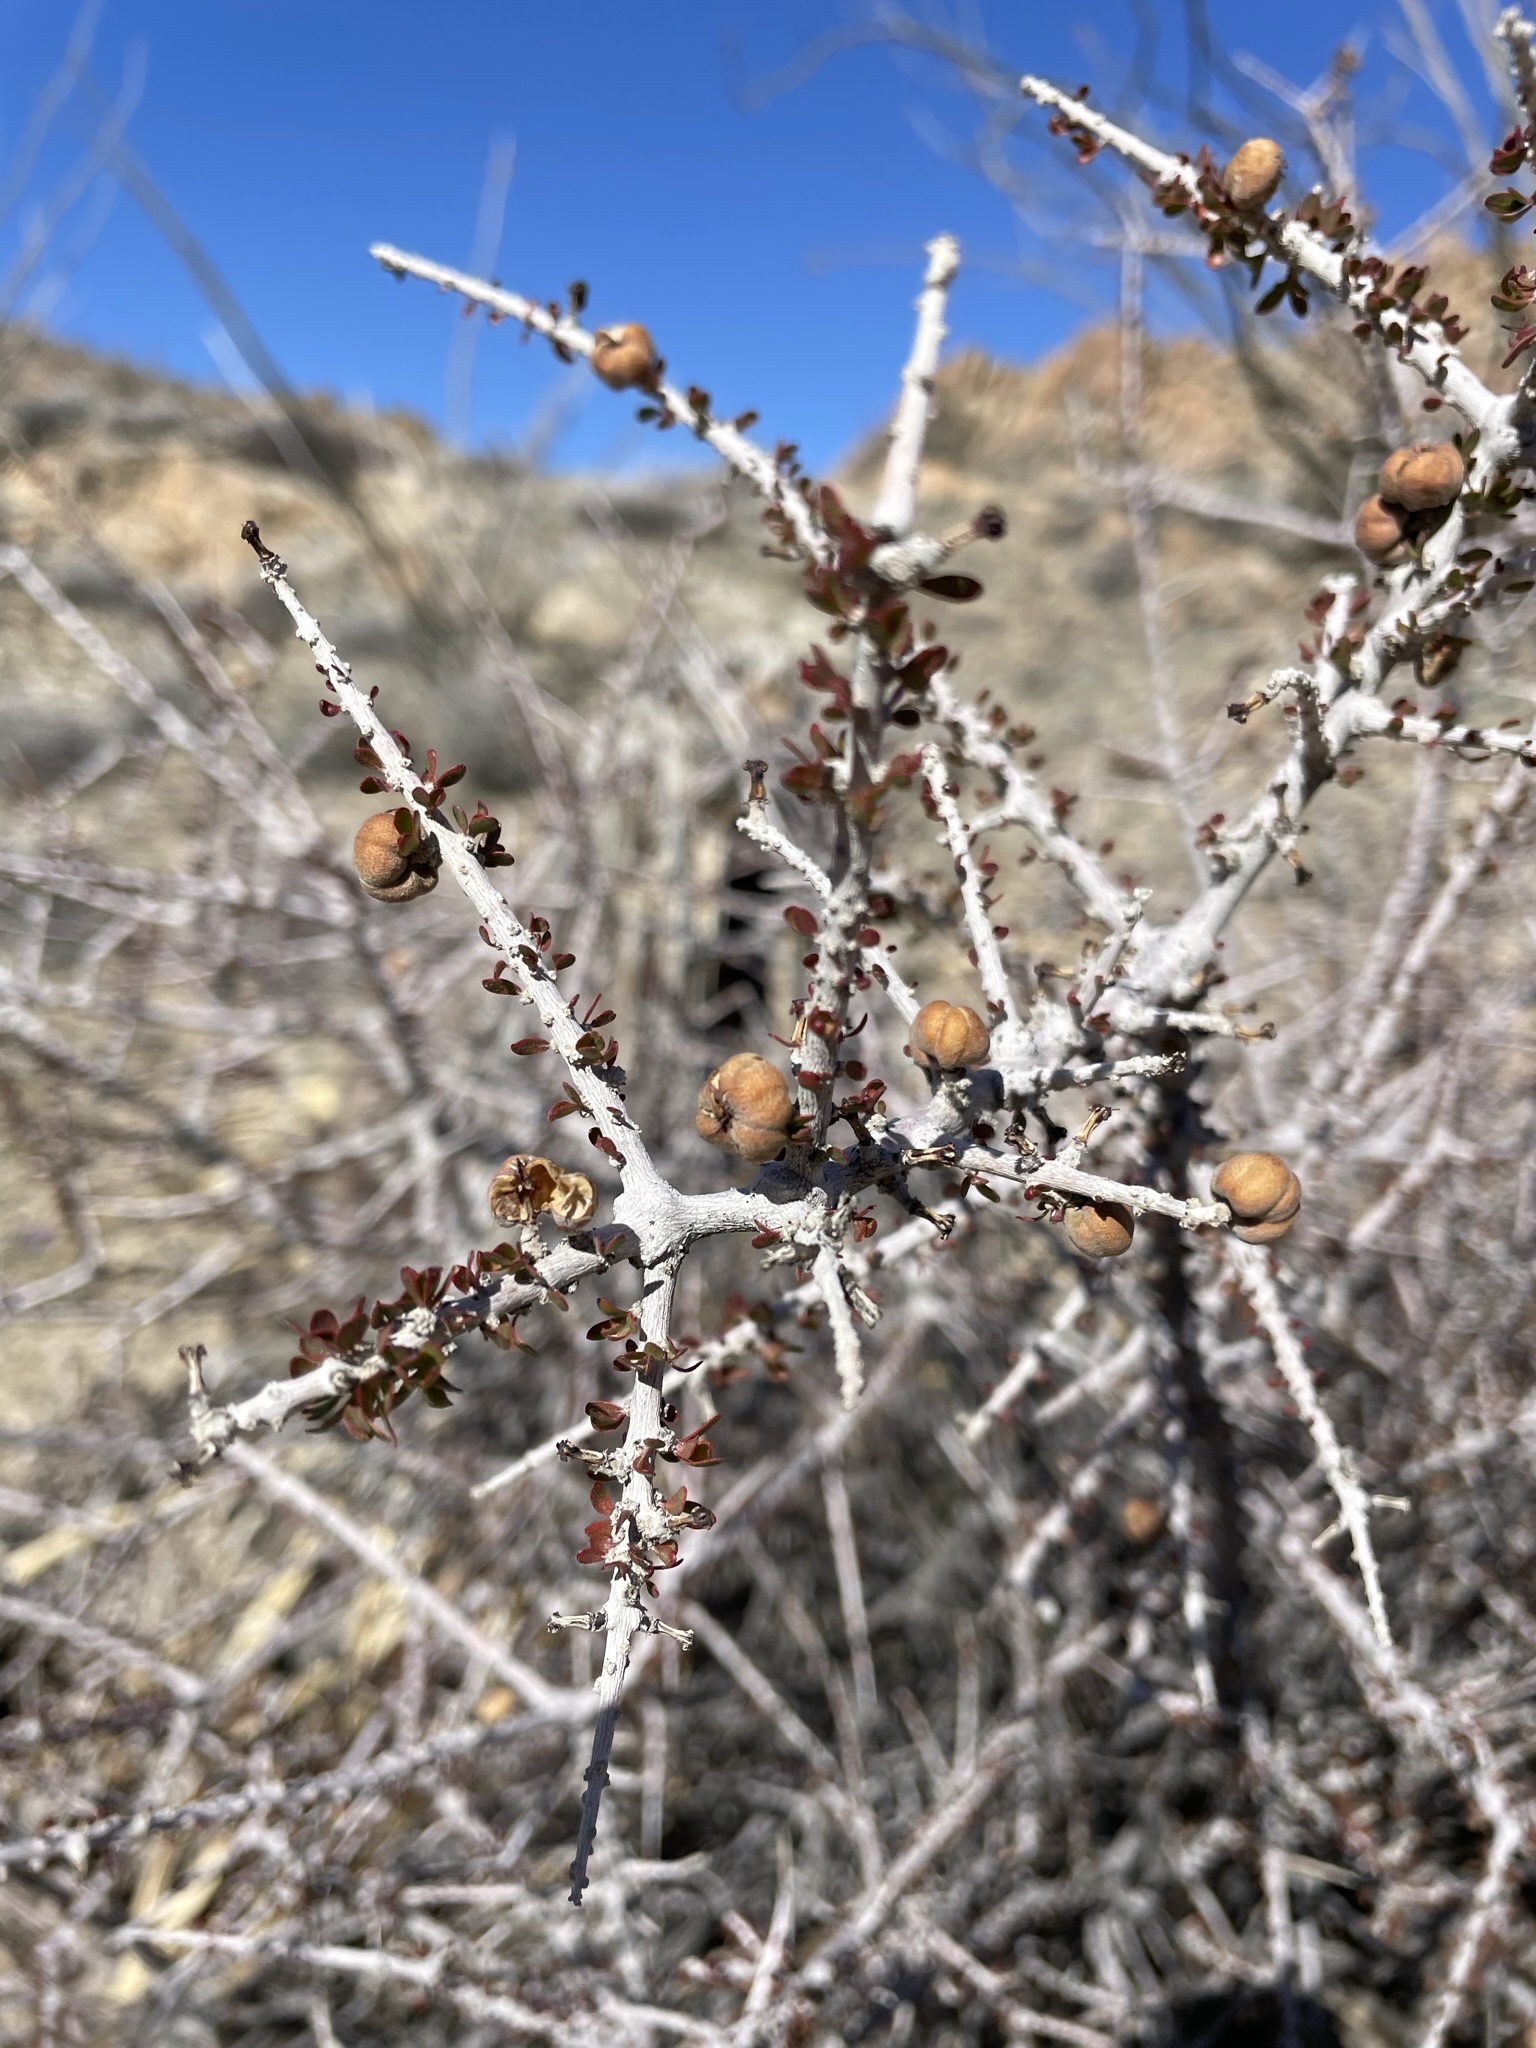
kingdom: Plantae
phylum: Tracheophyta
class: Magnoliopsida
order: Malpighiales
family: Picrodendraceae
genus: Tetracoccus
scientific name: Tetracoccus hallii
